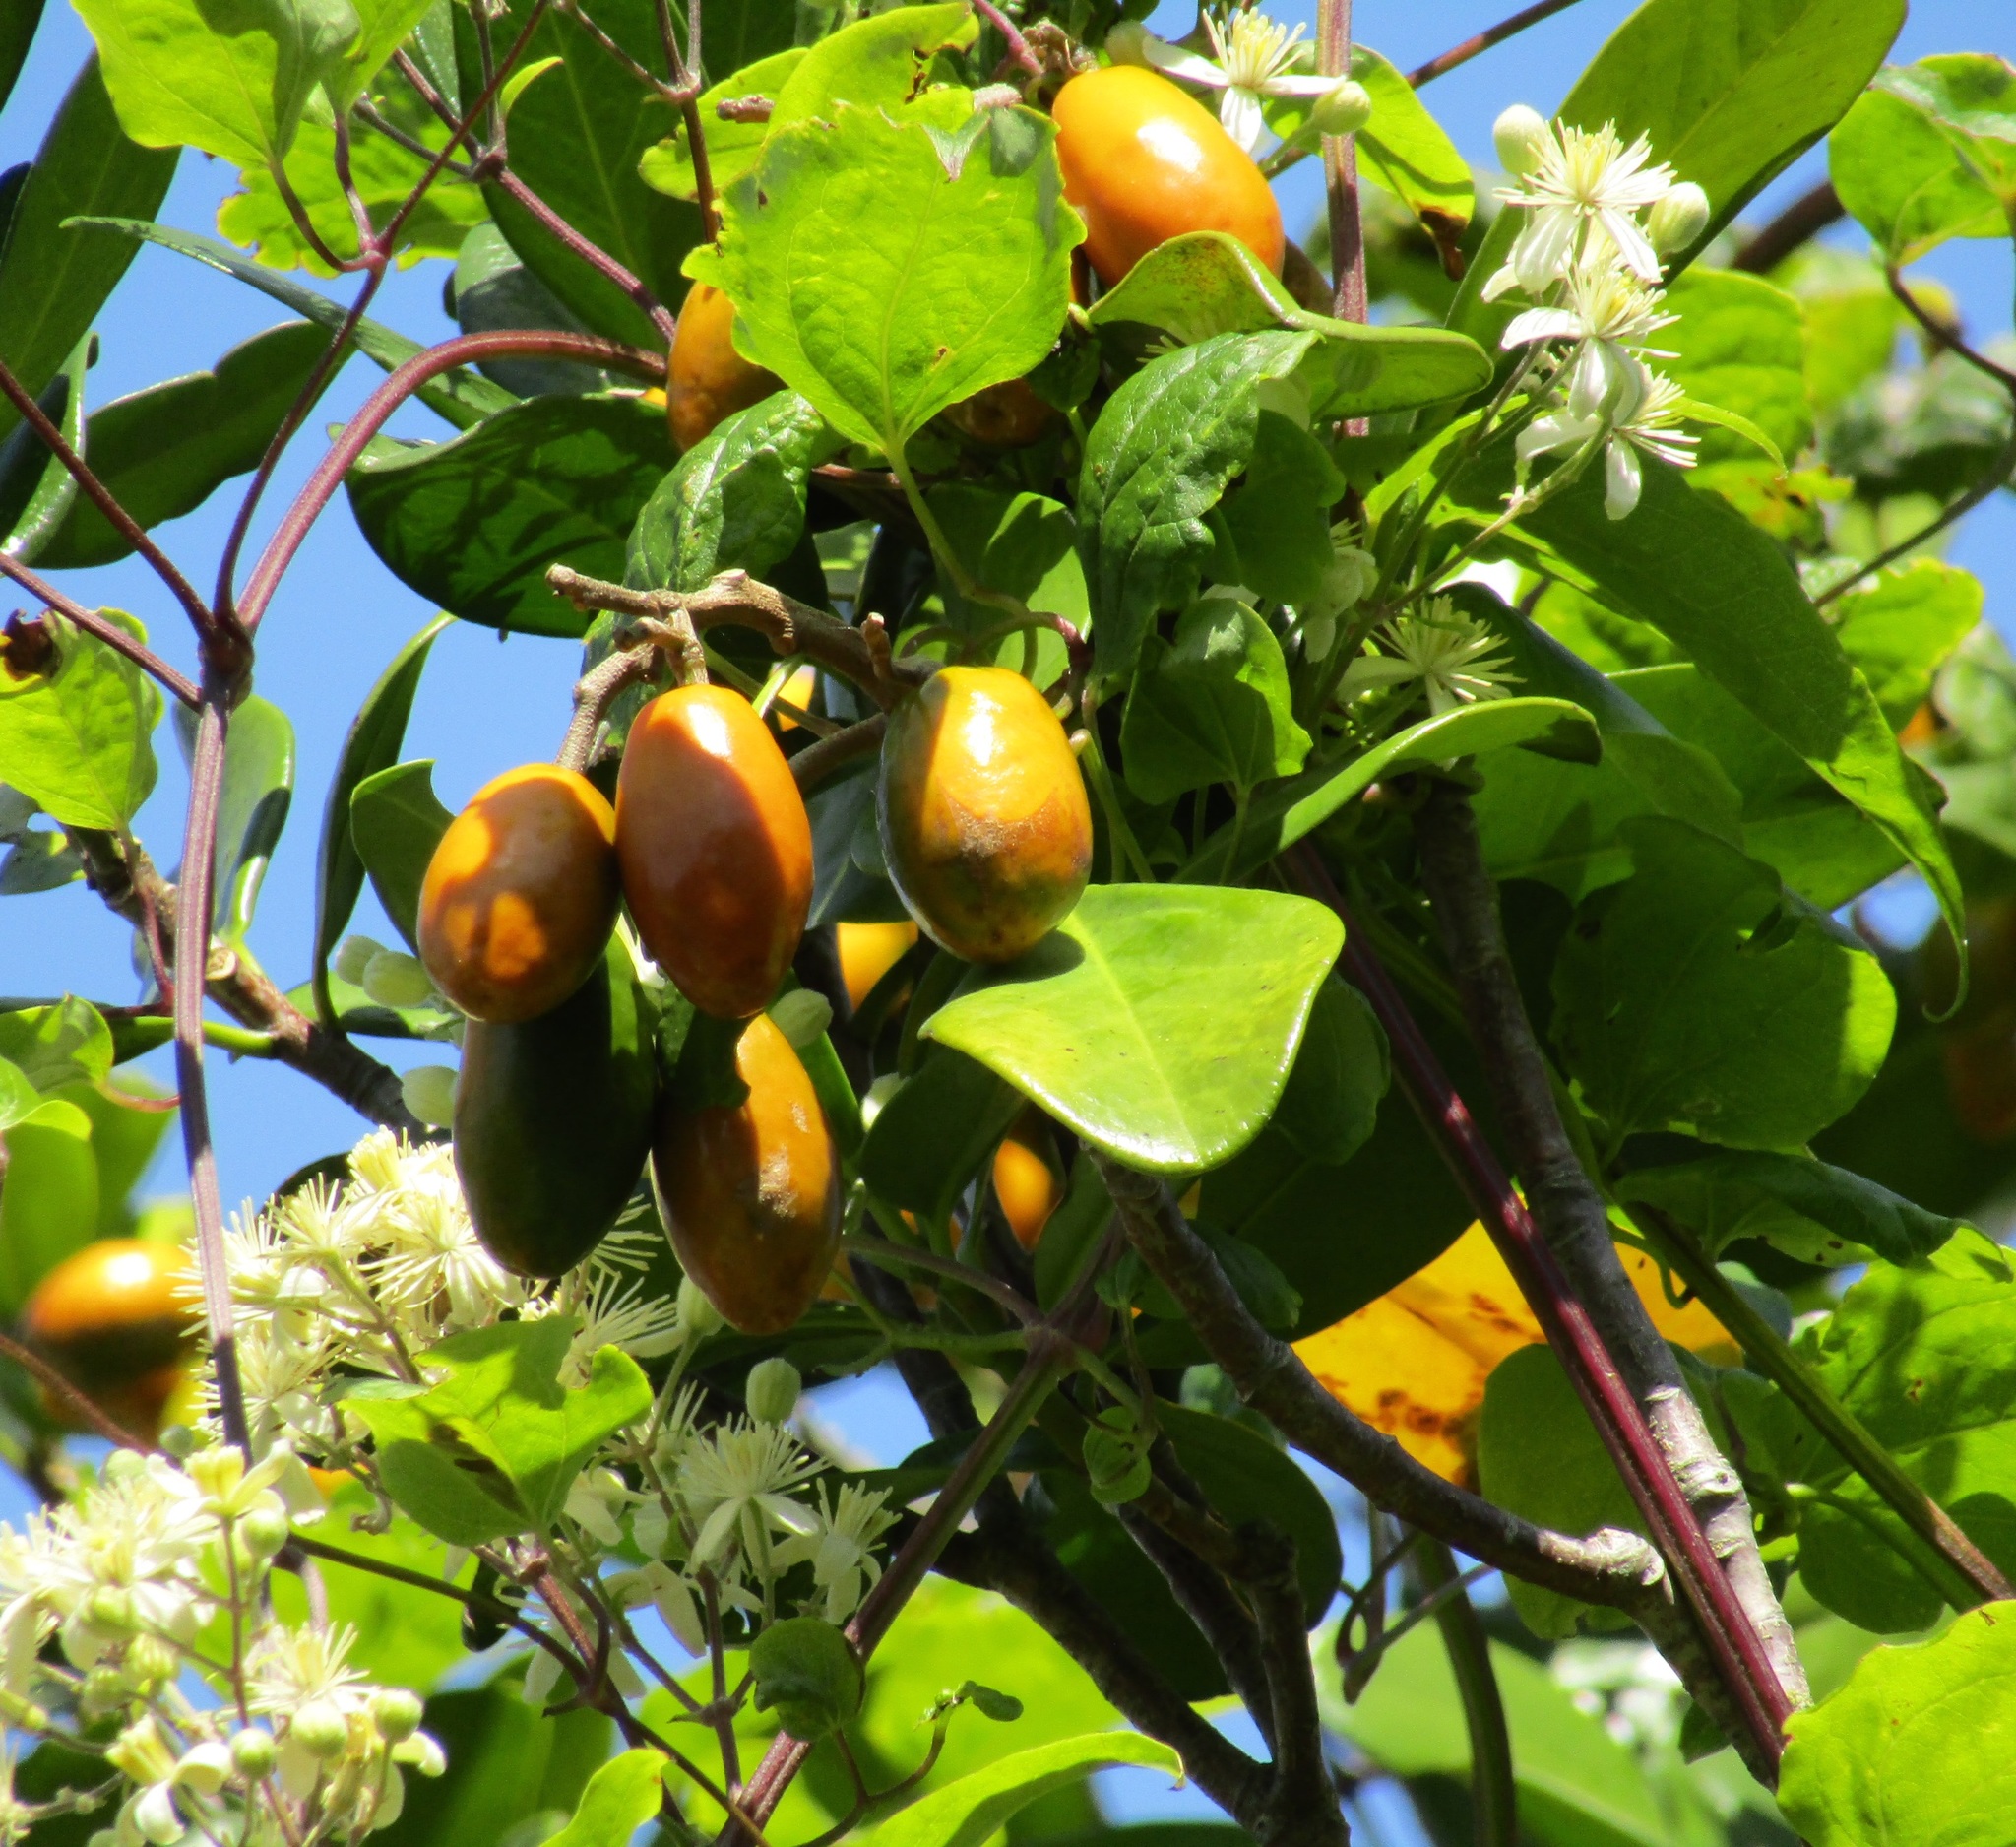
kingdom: Plantae
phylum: Tracheophyta
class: Magnoliopsida
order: Ranunculales
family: Ranunculaceae
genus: Clematis
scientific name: Clematis vitalba
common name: Evergreen clematis
